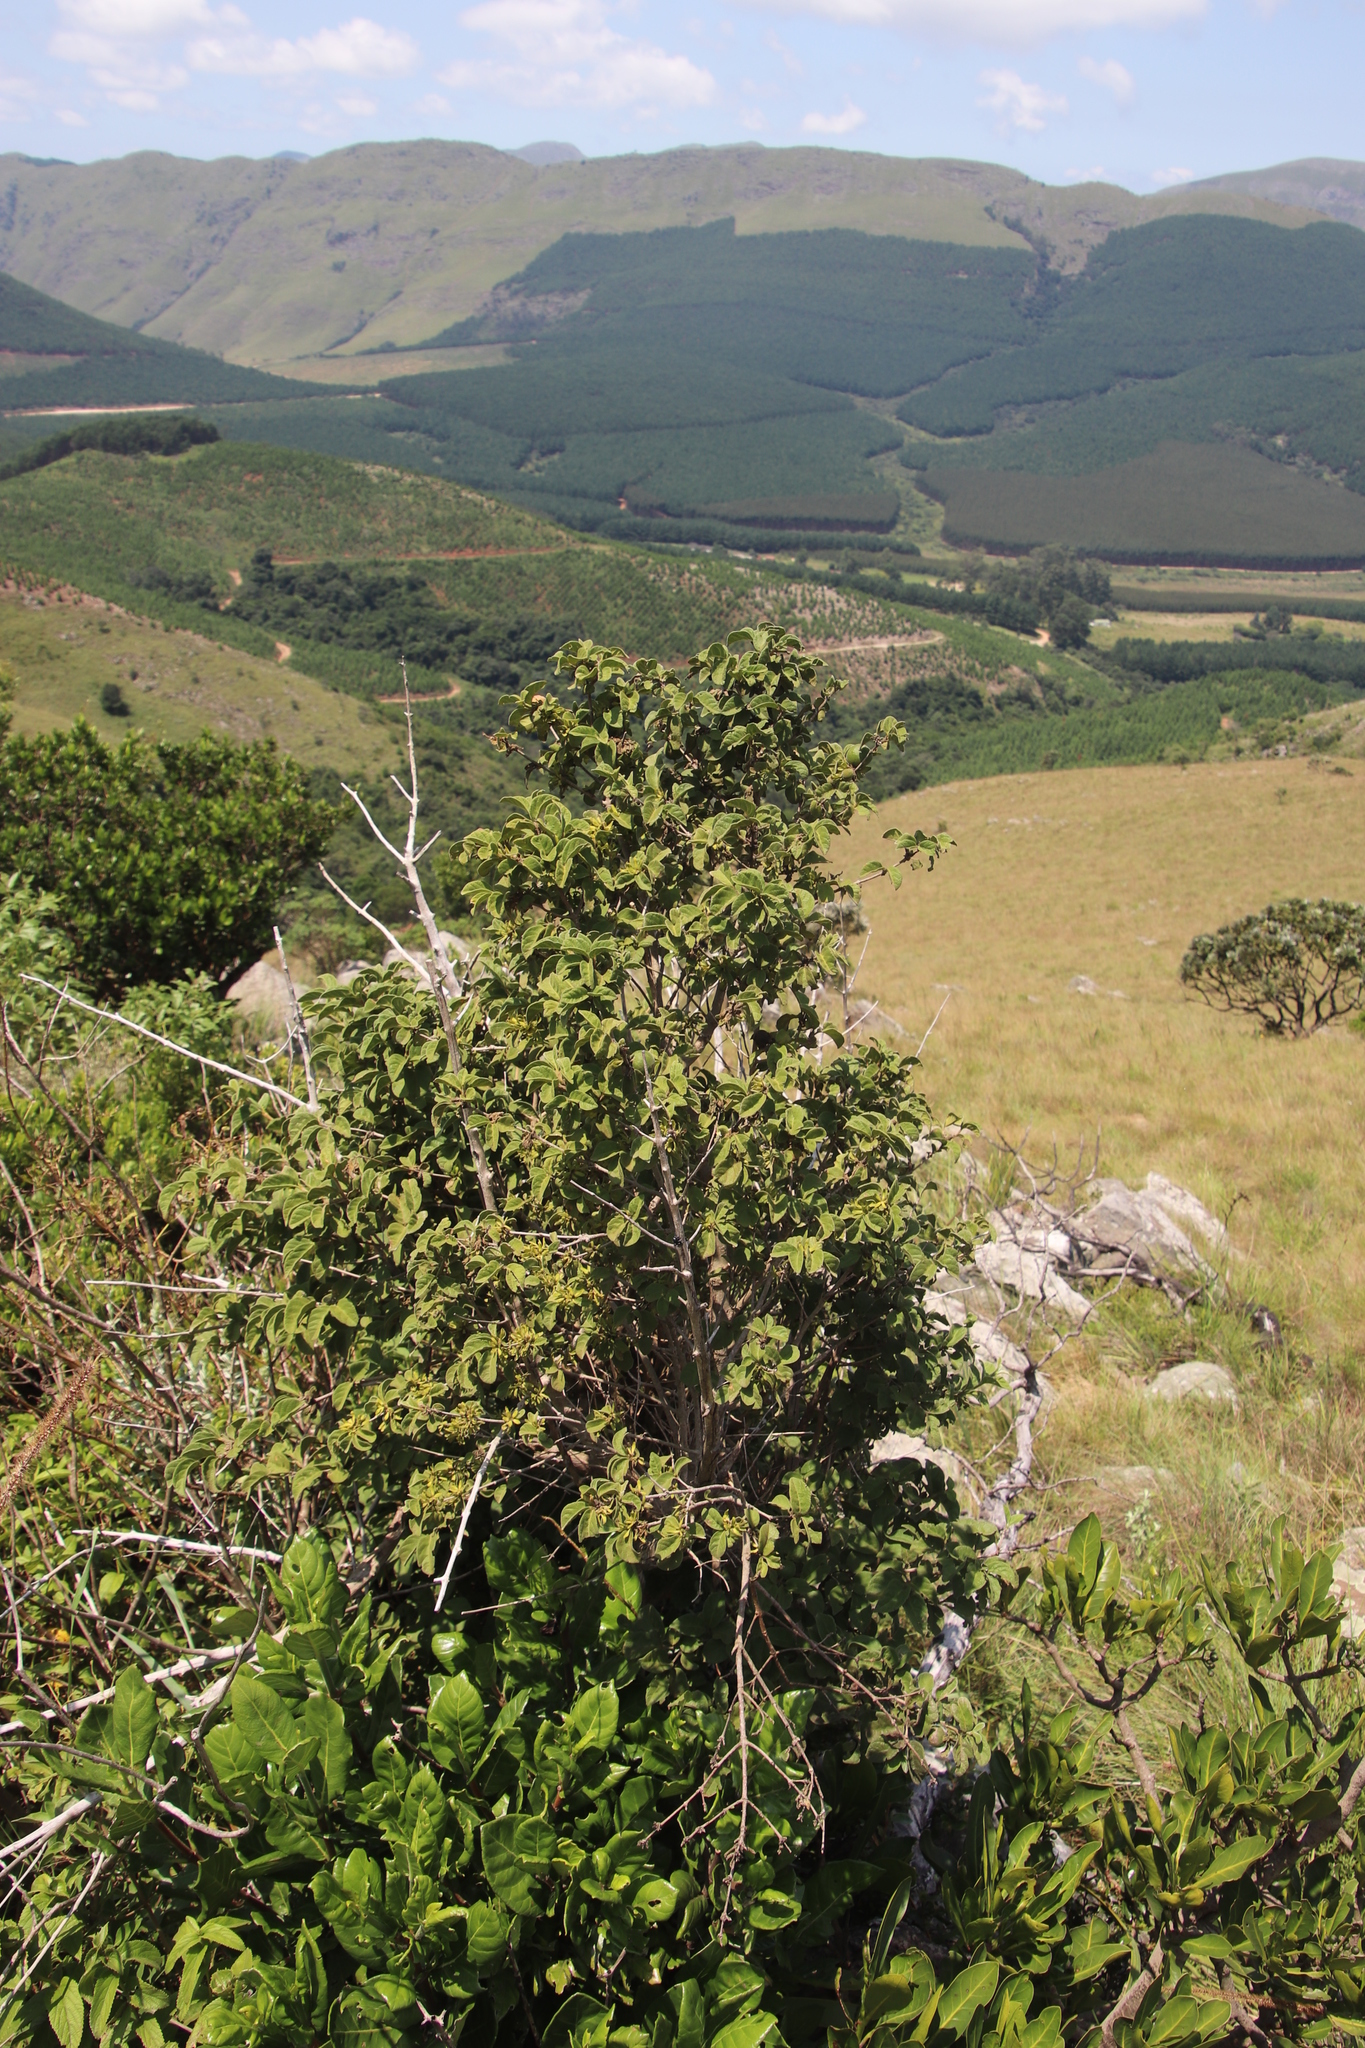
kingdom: Plantae
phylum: Tracheophyta
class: Magnoliopsida
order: Gentianales
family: Rubiaceae
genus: Vangueria
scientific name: Vangueria infausta
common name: Medlar
